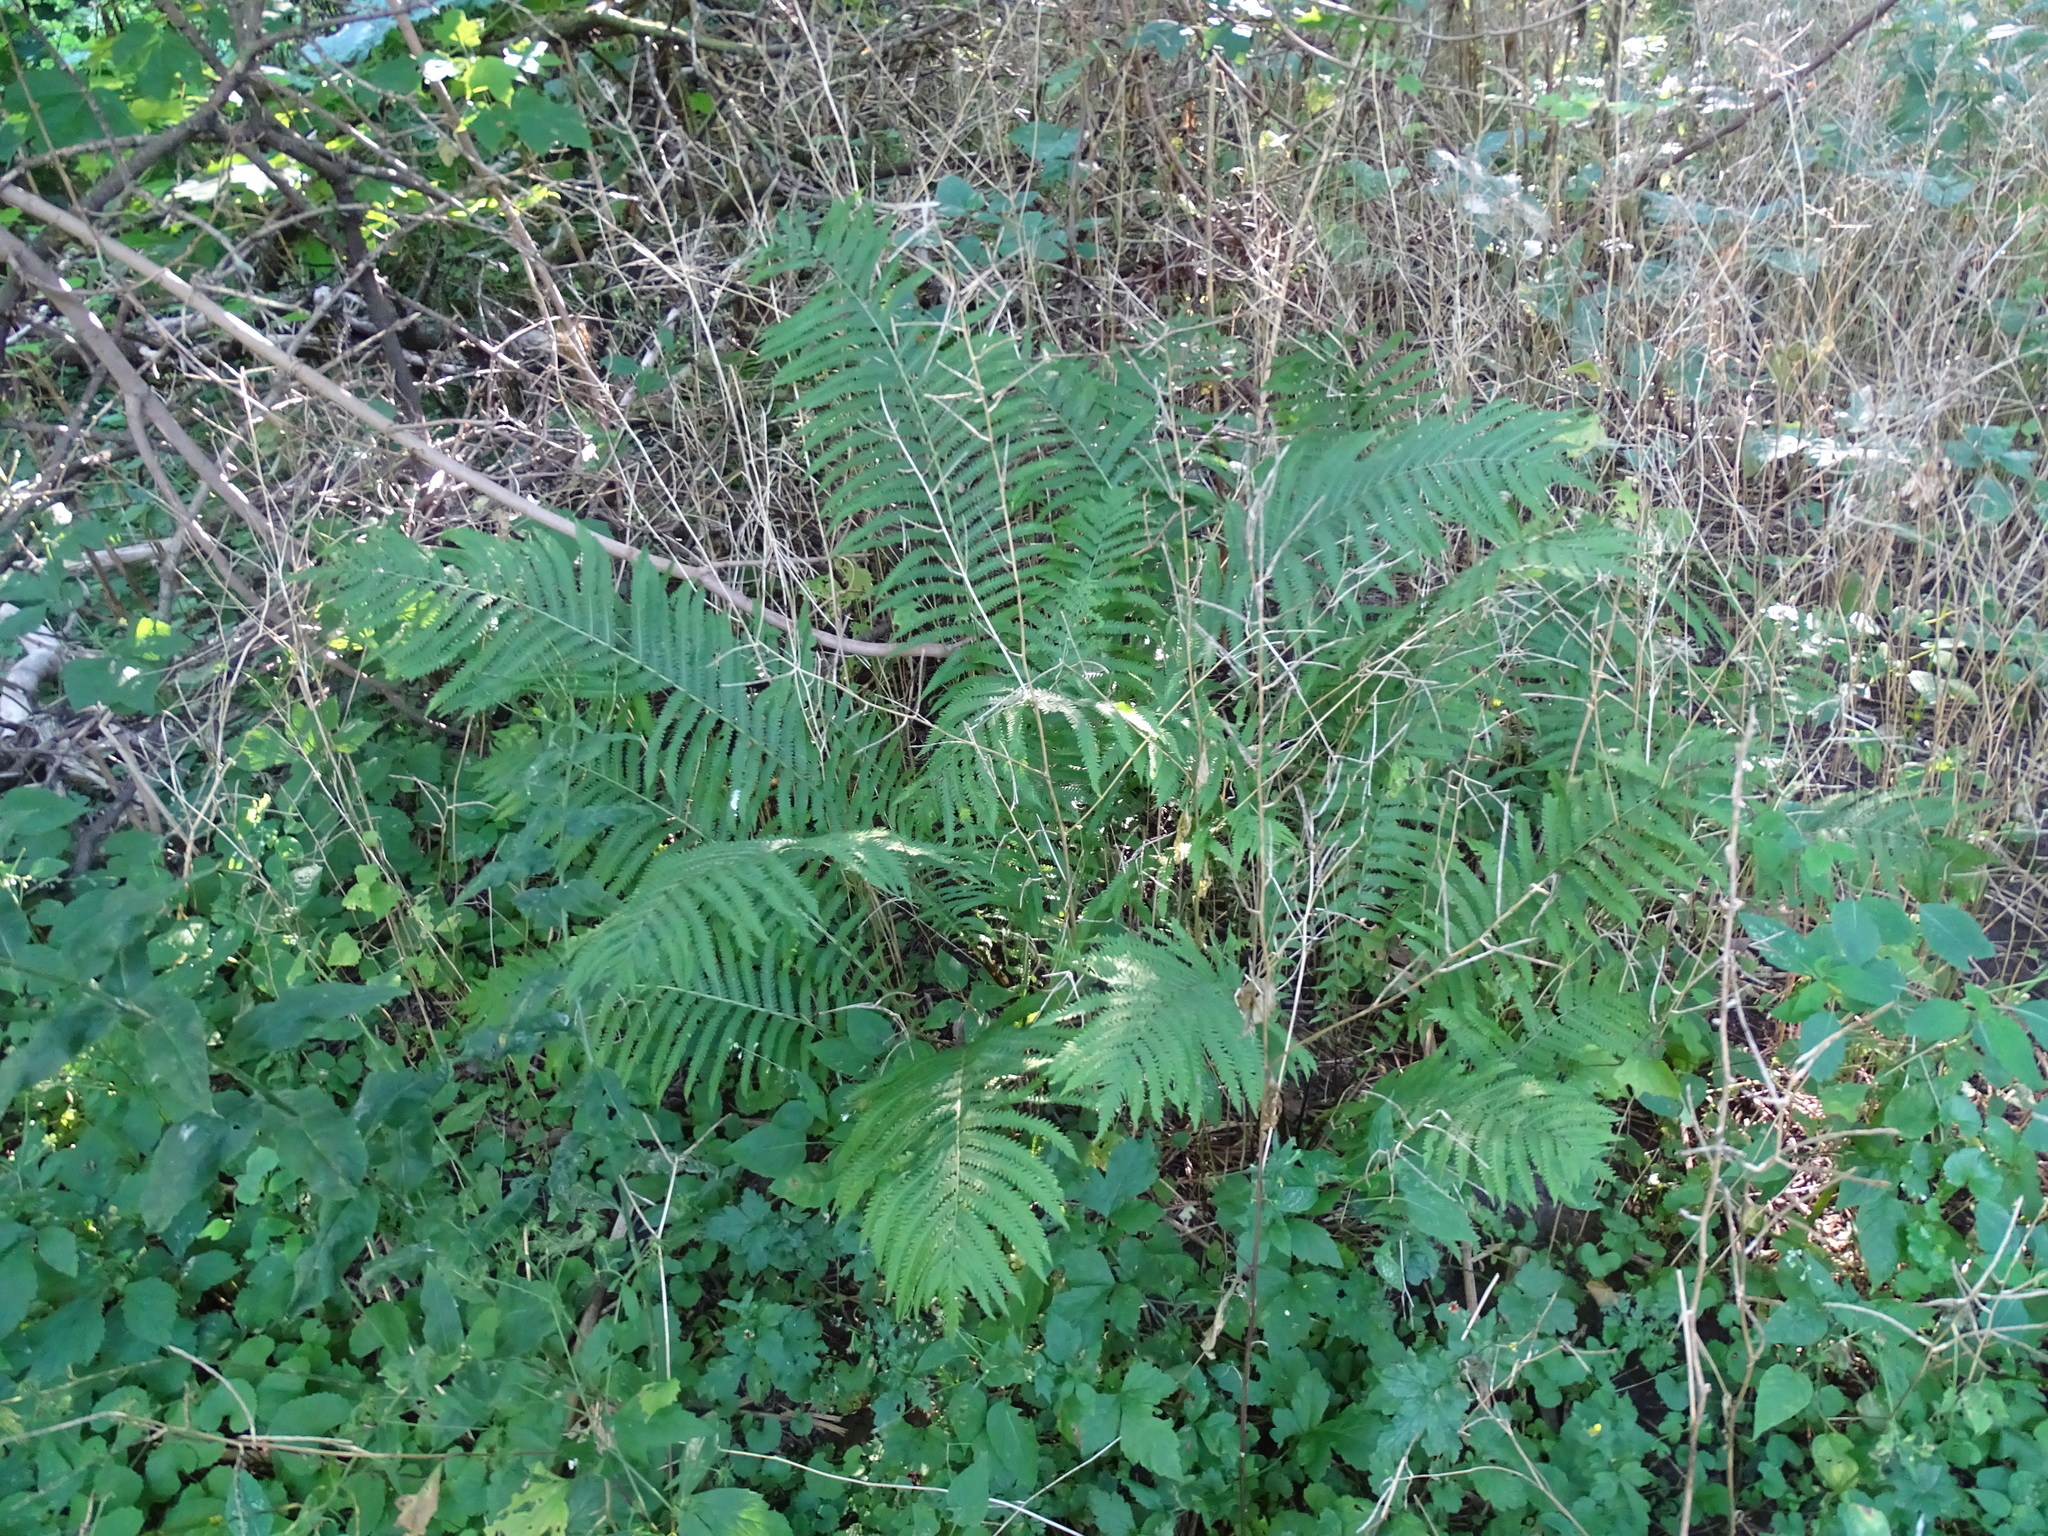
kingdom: Plantae
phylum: Tracheophyta
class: Polypodiopsida
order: Polypodiales
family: Onocleaceae
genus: Matteuccia
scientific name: Matteuccia struthiopteris
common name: Ostrich fern
